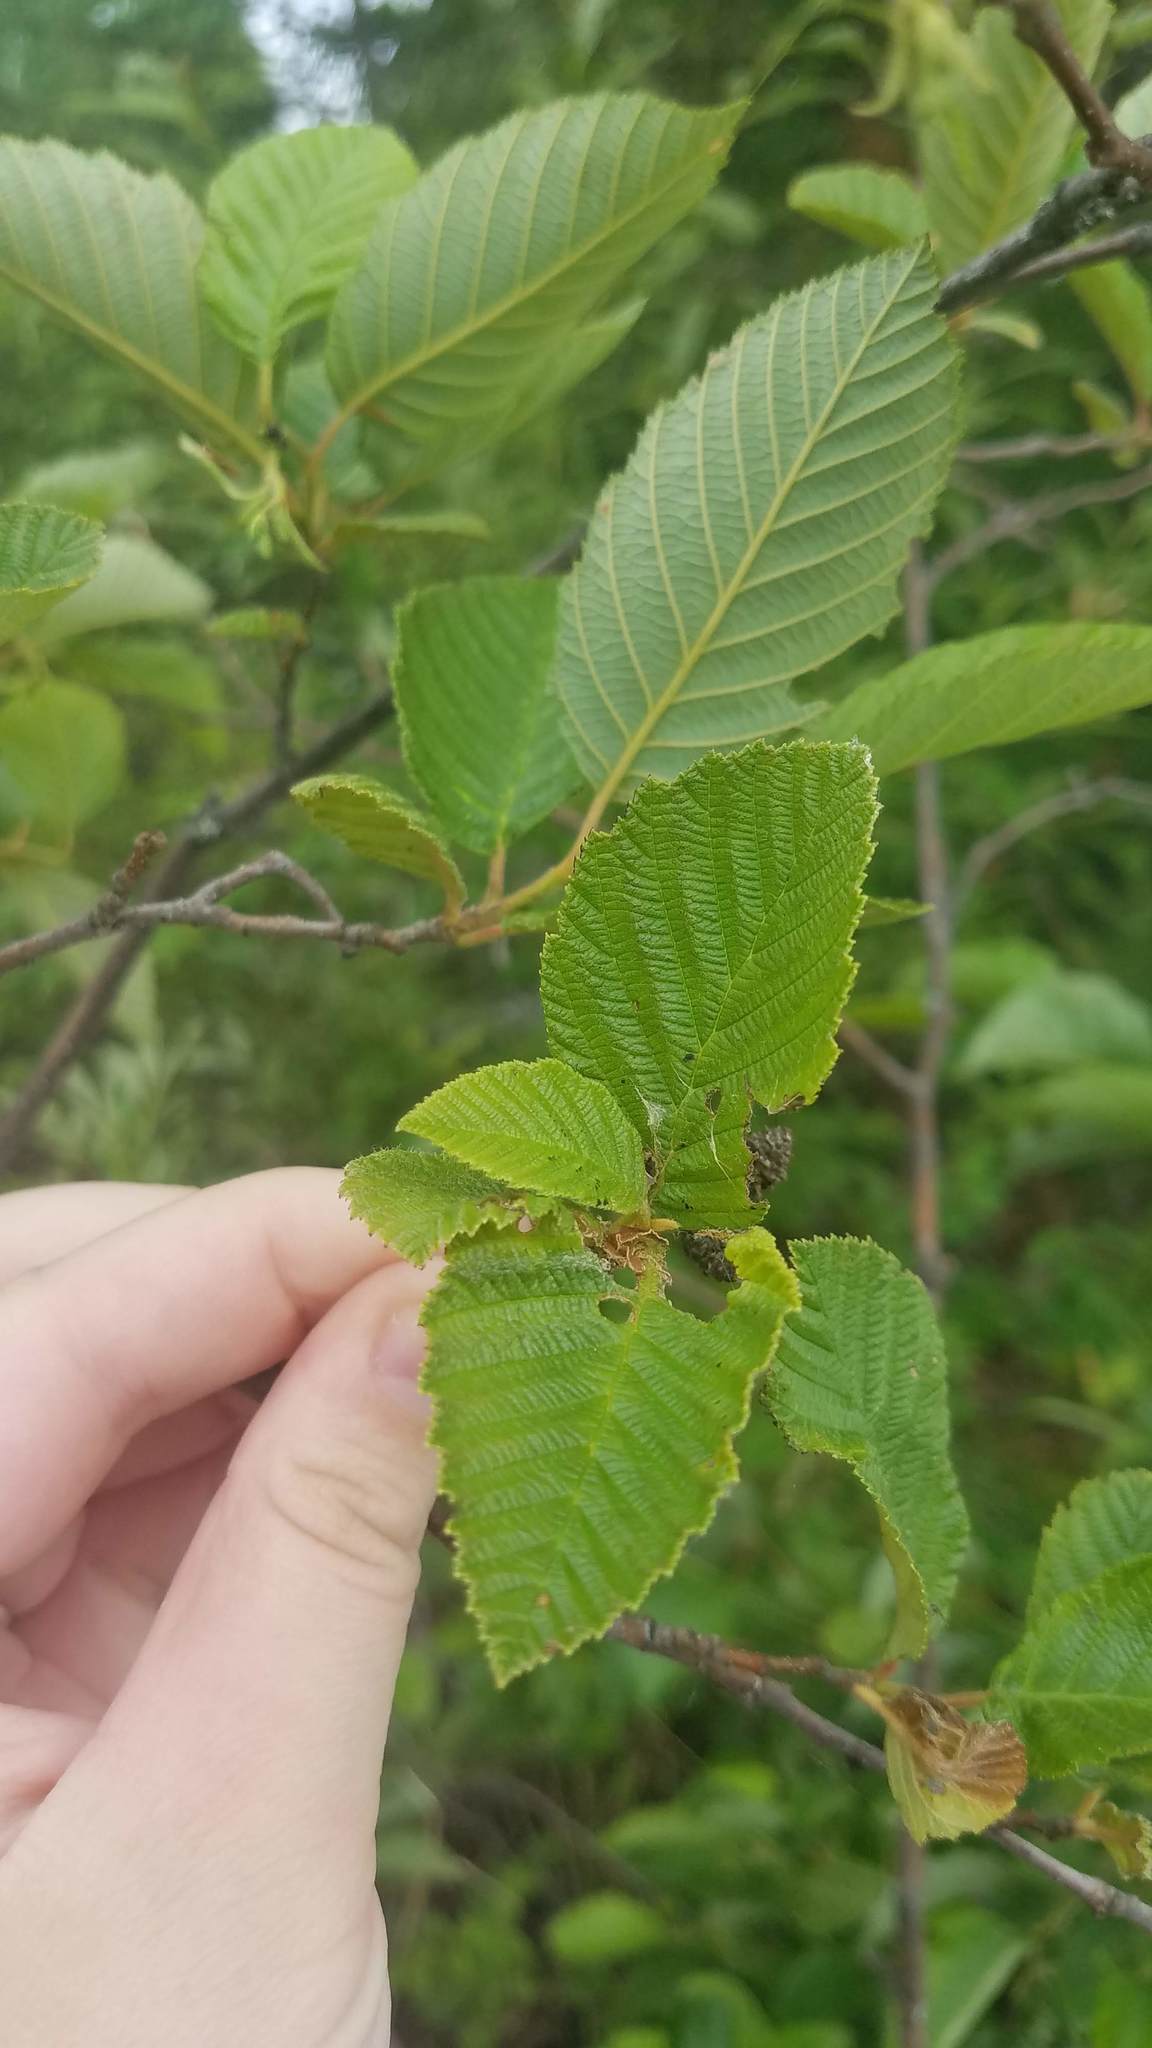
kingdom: Plantae
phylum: Tracheophyta
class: Magnoliopsida
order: Fagales
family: Betulaceae
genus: Alnus
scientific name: Alnus incana
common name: Grey alder
